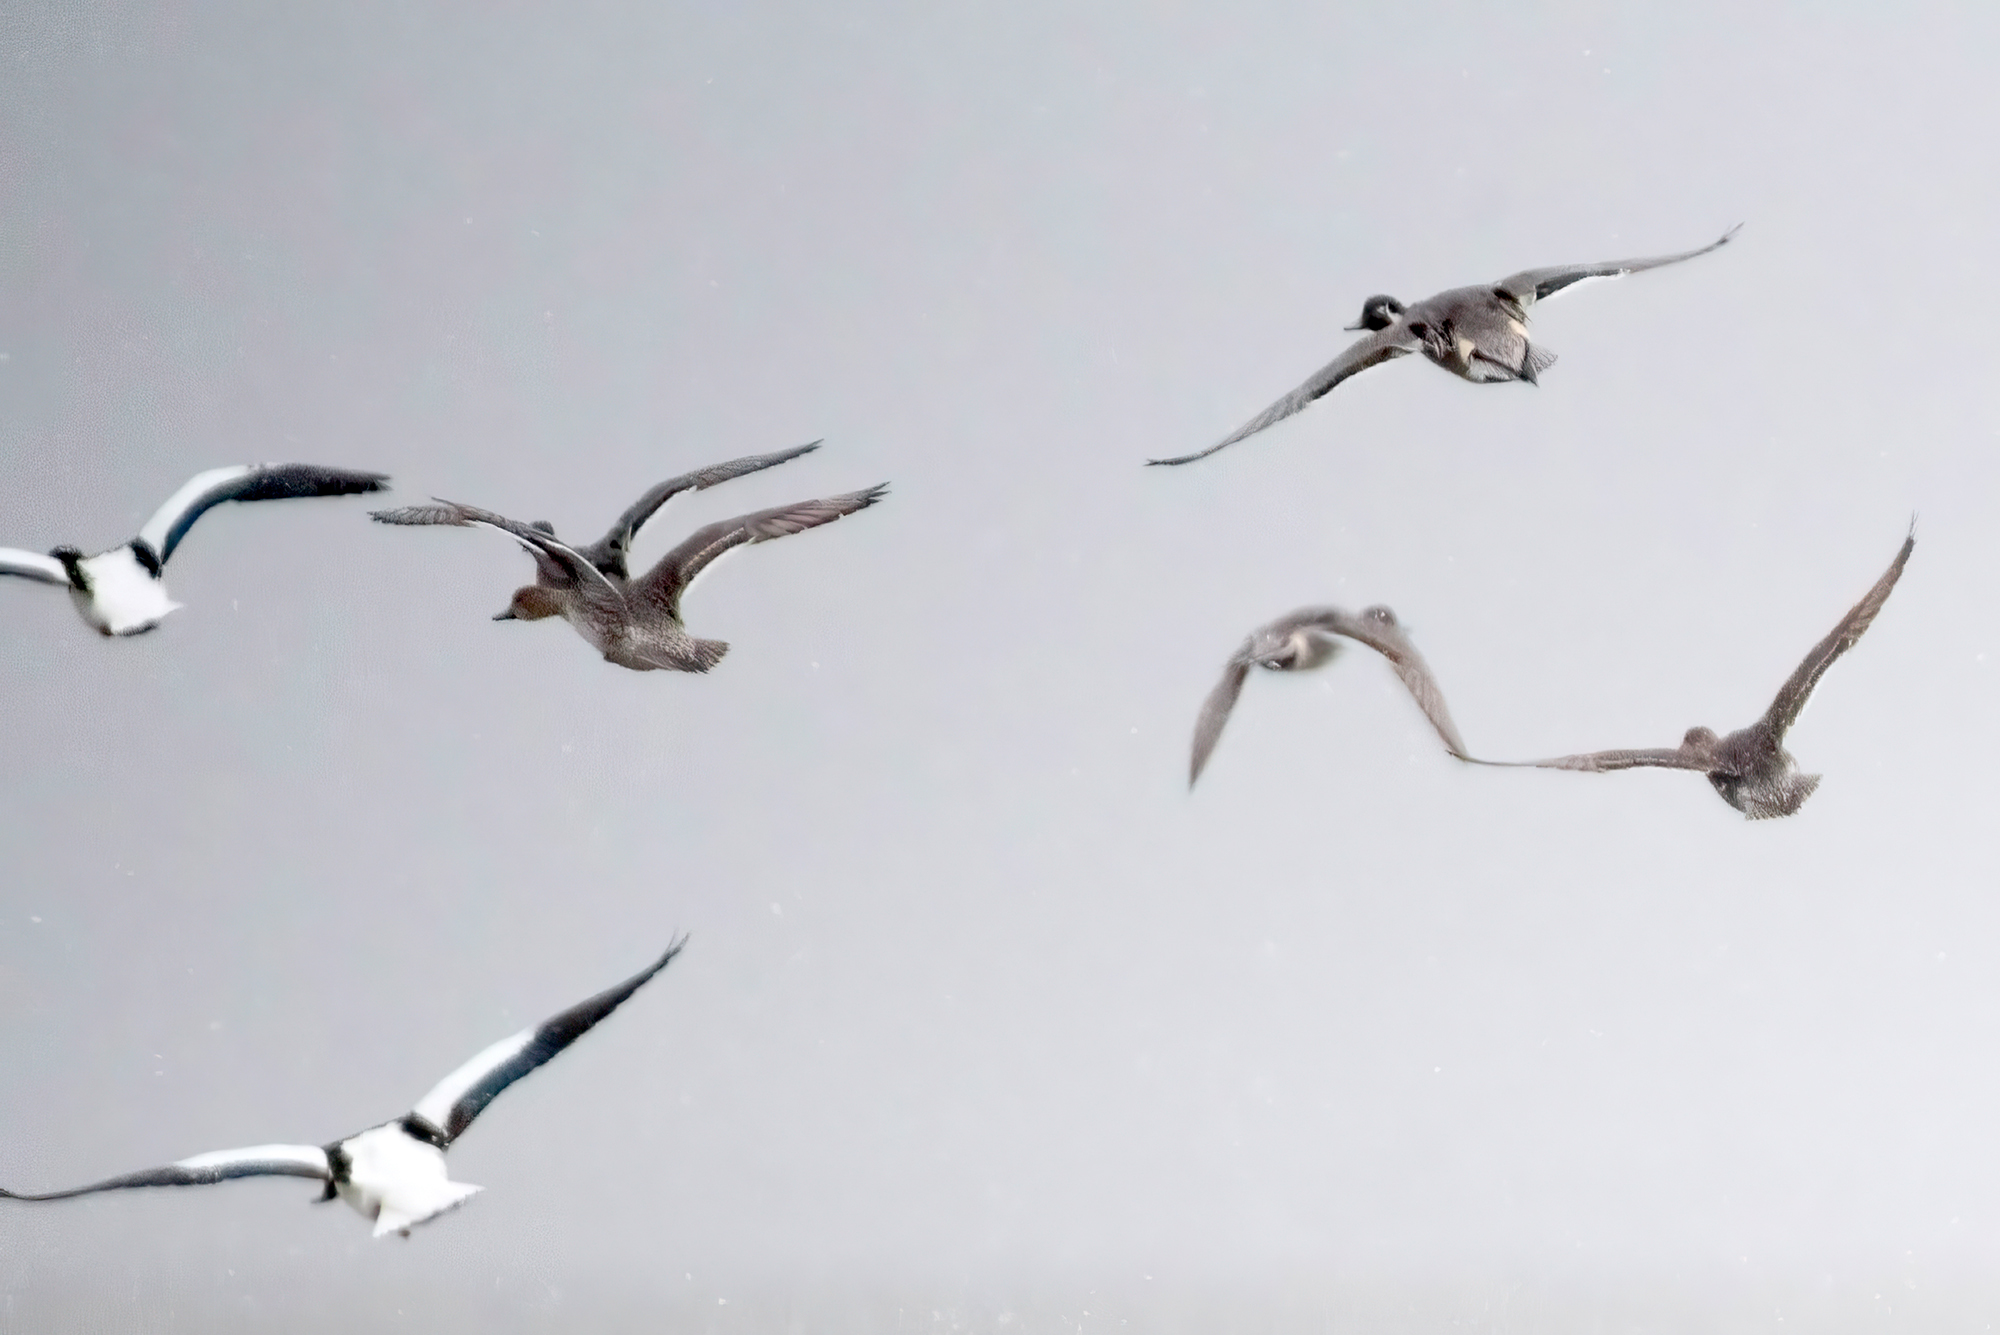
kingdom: Animalia
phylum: Chordata
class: Aves
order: Anseriformes
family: Anatidae
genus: Anas
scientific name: Anas acuta
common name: Northern pintail
